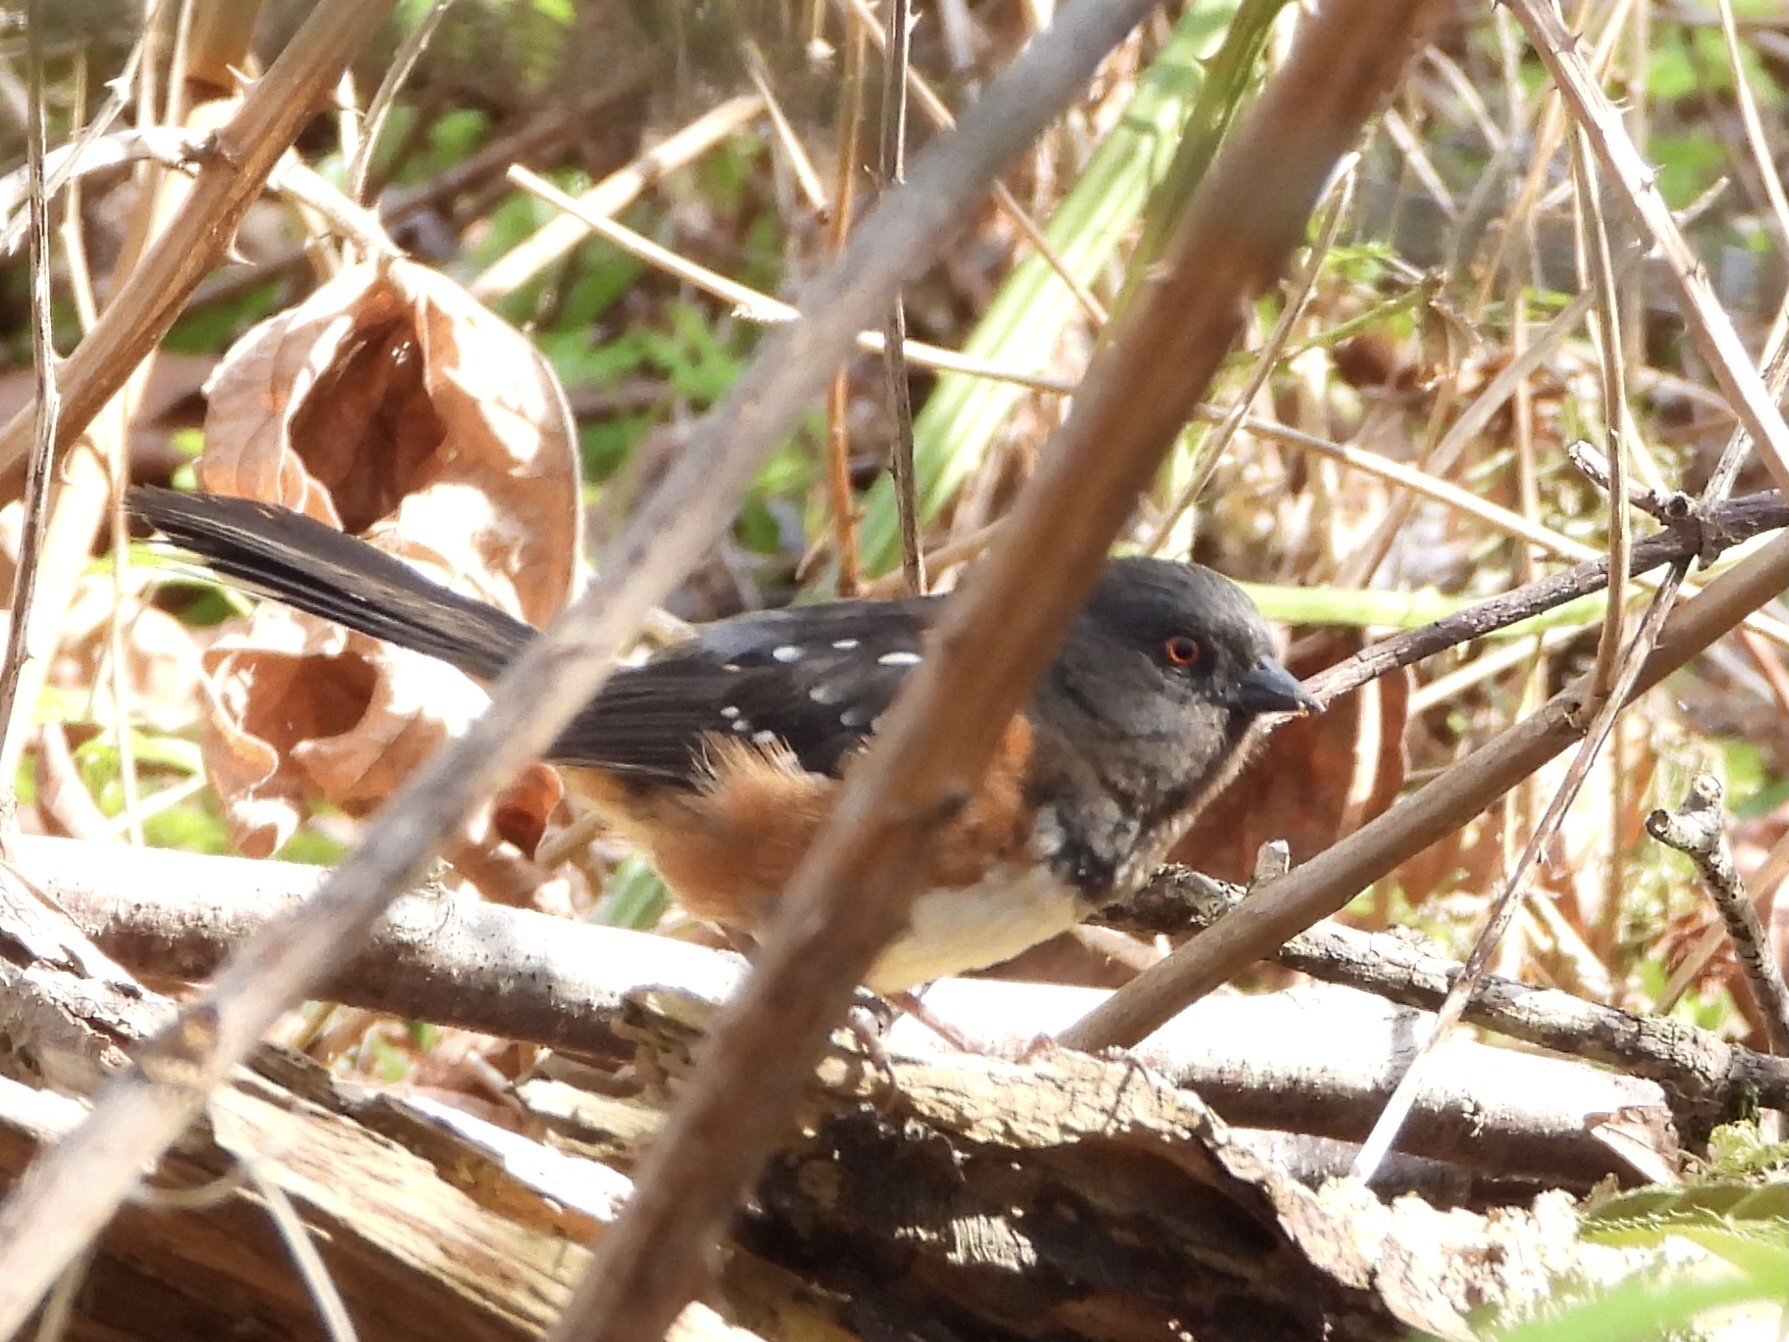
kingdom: Animalia
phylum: Chordata
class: Aves
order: Passeriformes
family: Passerellidae
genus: Pipilo
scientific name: Pipilo maculatus
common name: Spotted towhee
